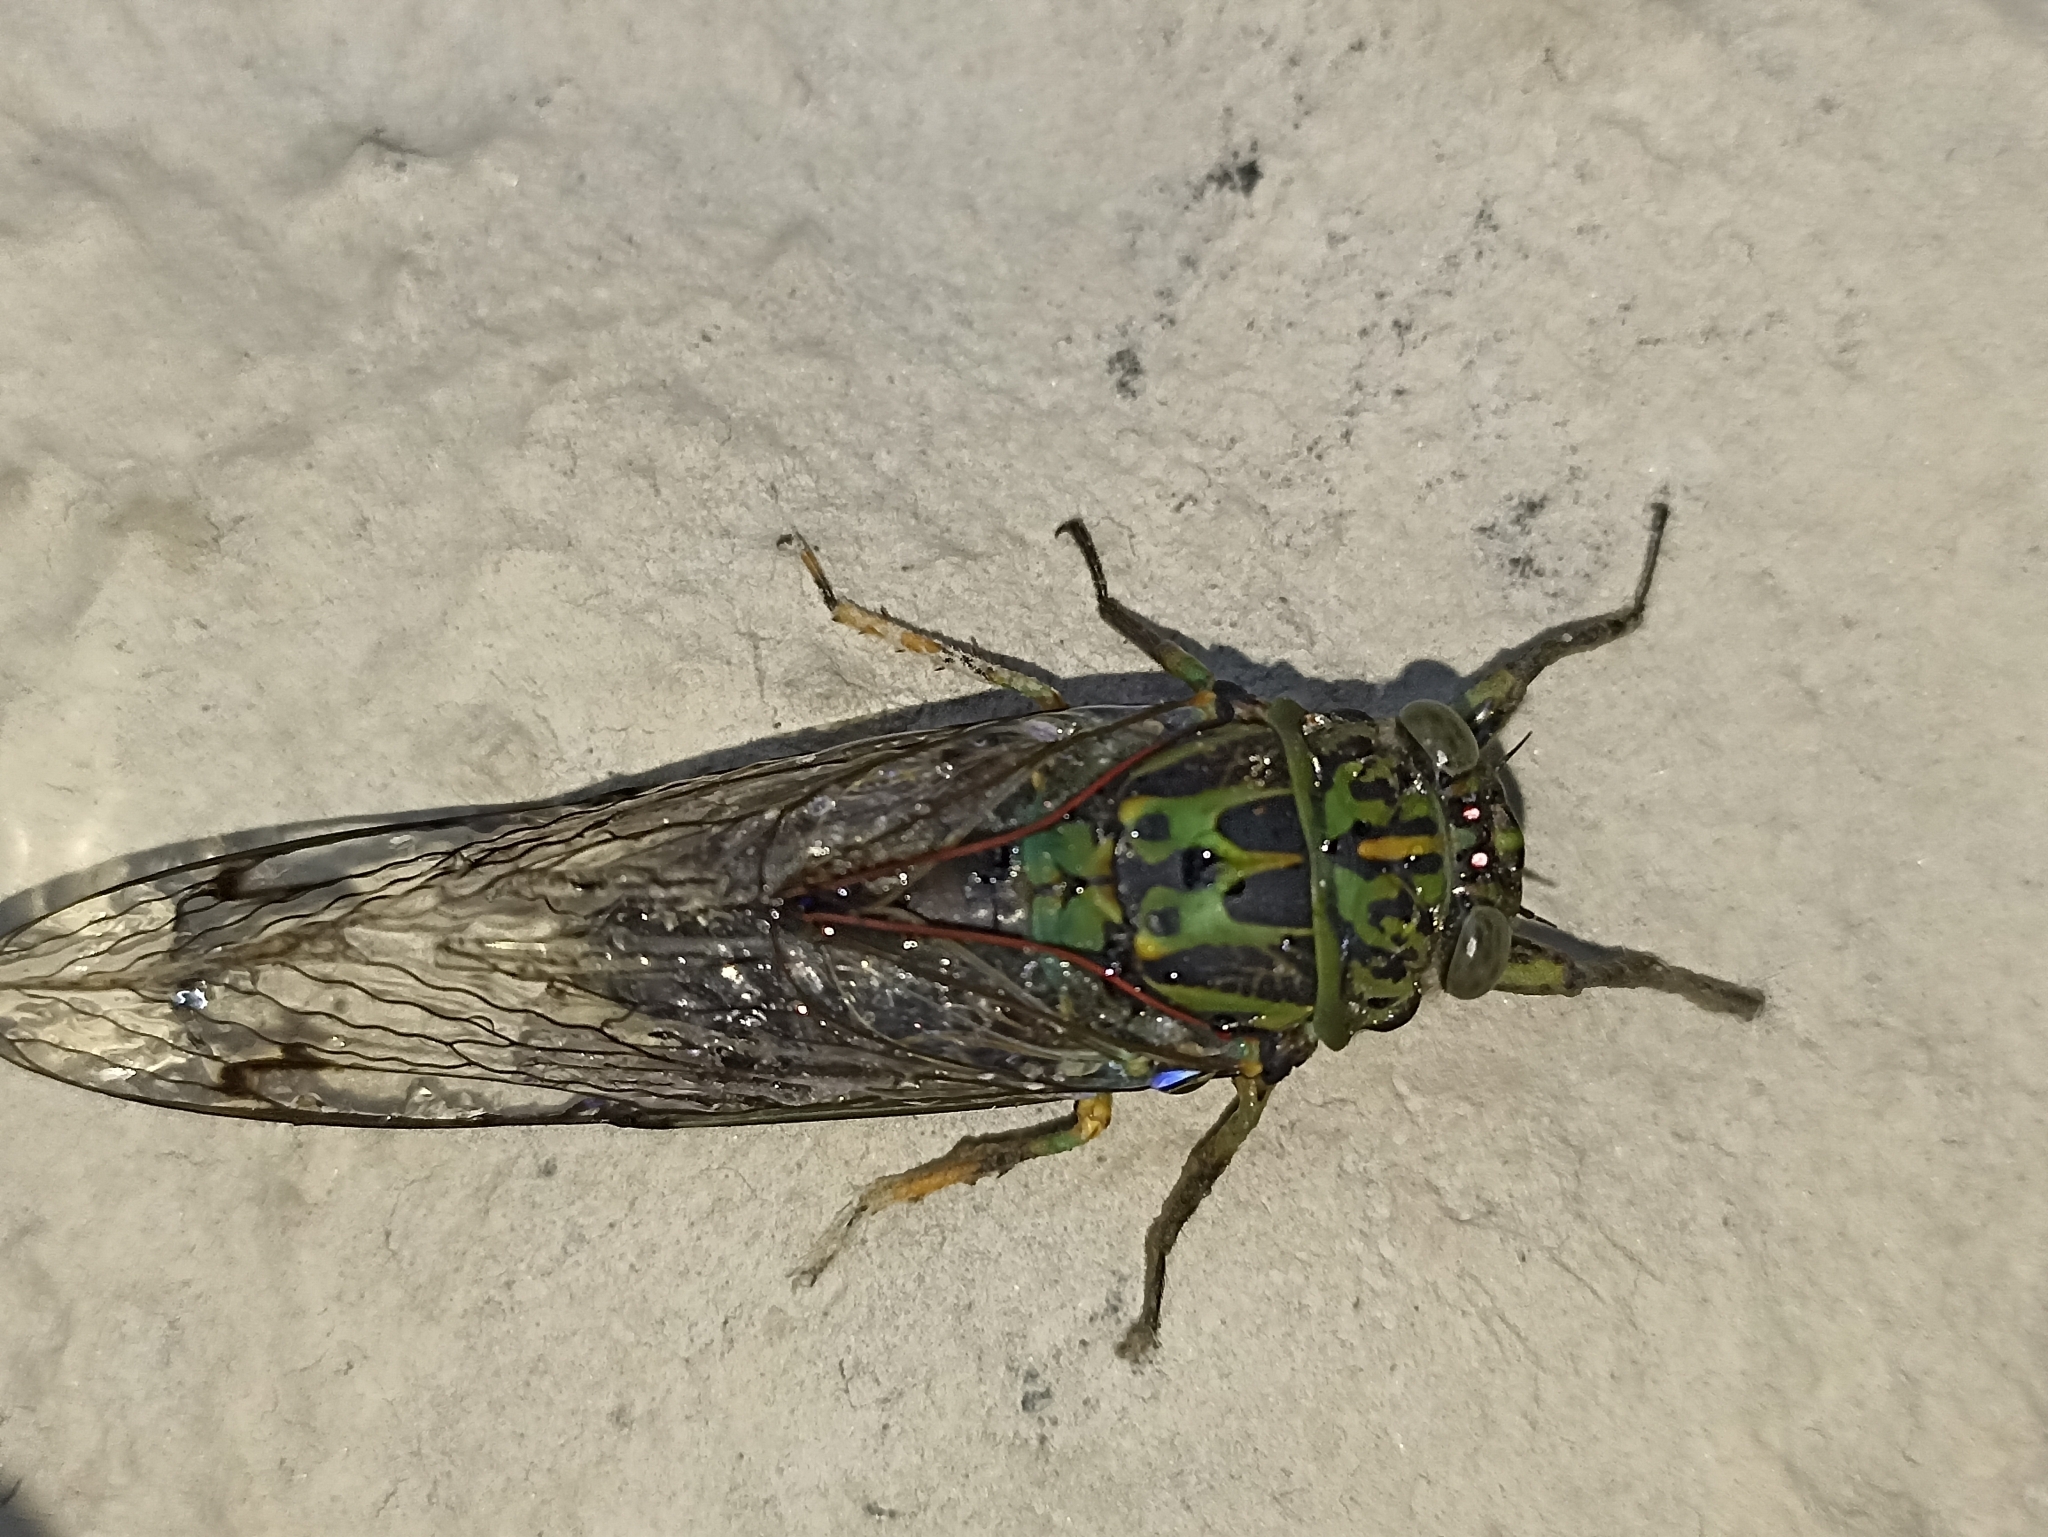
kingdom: Animalia
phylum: Arthropoda
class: Insecta
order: Hemiptera
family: Cicadidae
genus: Amphipsalta
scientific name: Amphipsalta zelandica
